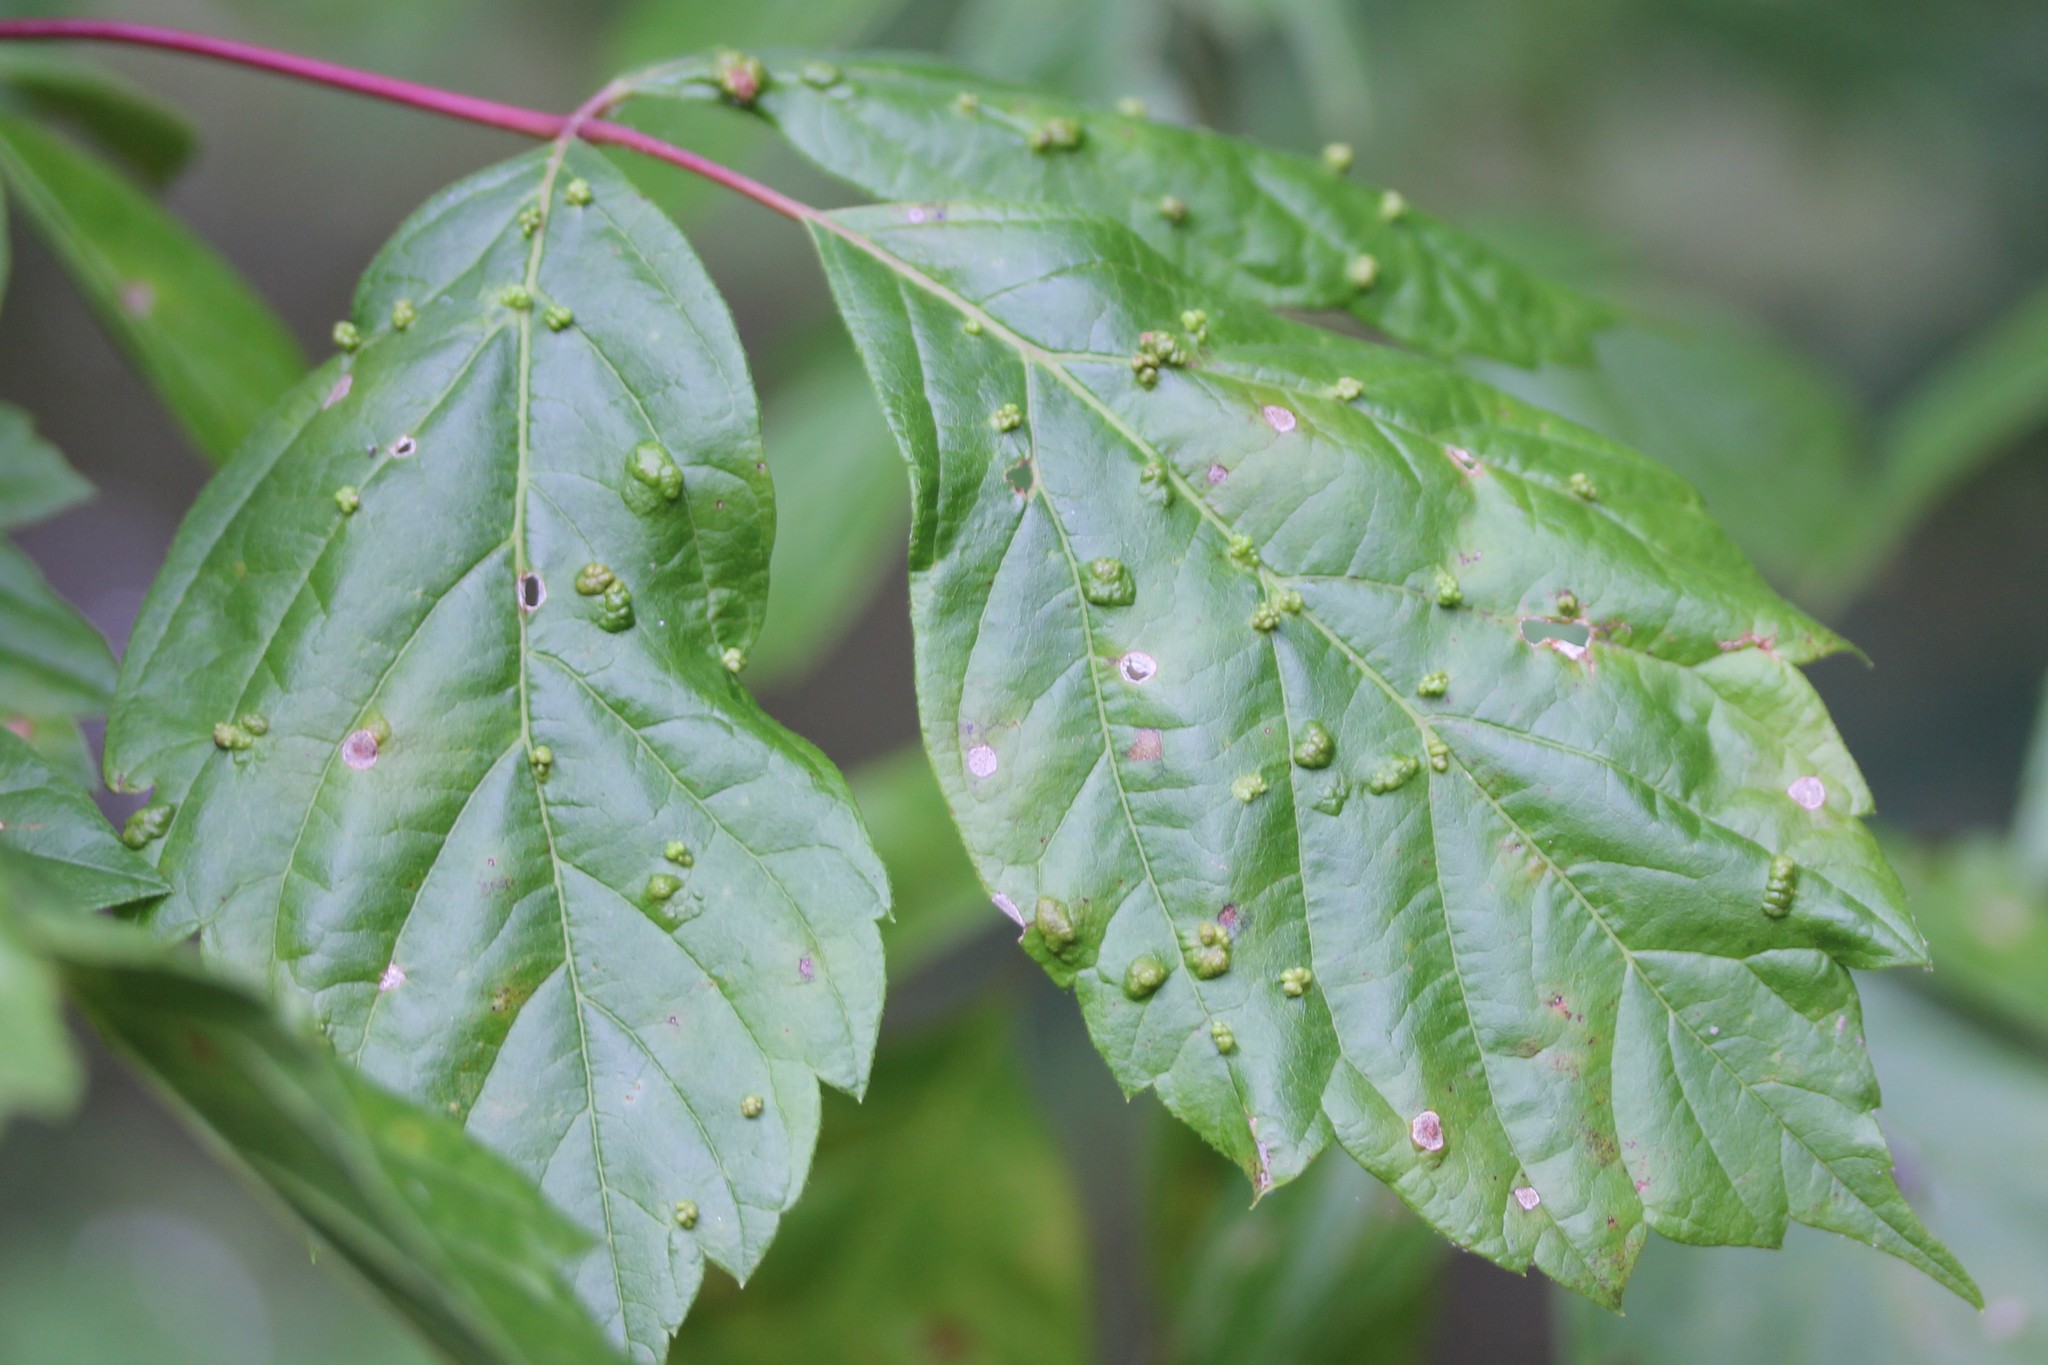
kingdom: Animalia
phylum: Arthropoda
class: Arachnida
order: Trombidiformes
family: Eriophyidae
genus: Aceria
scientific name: Aceria
